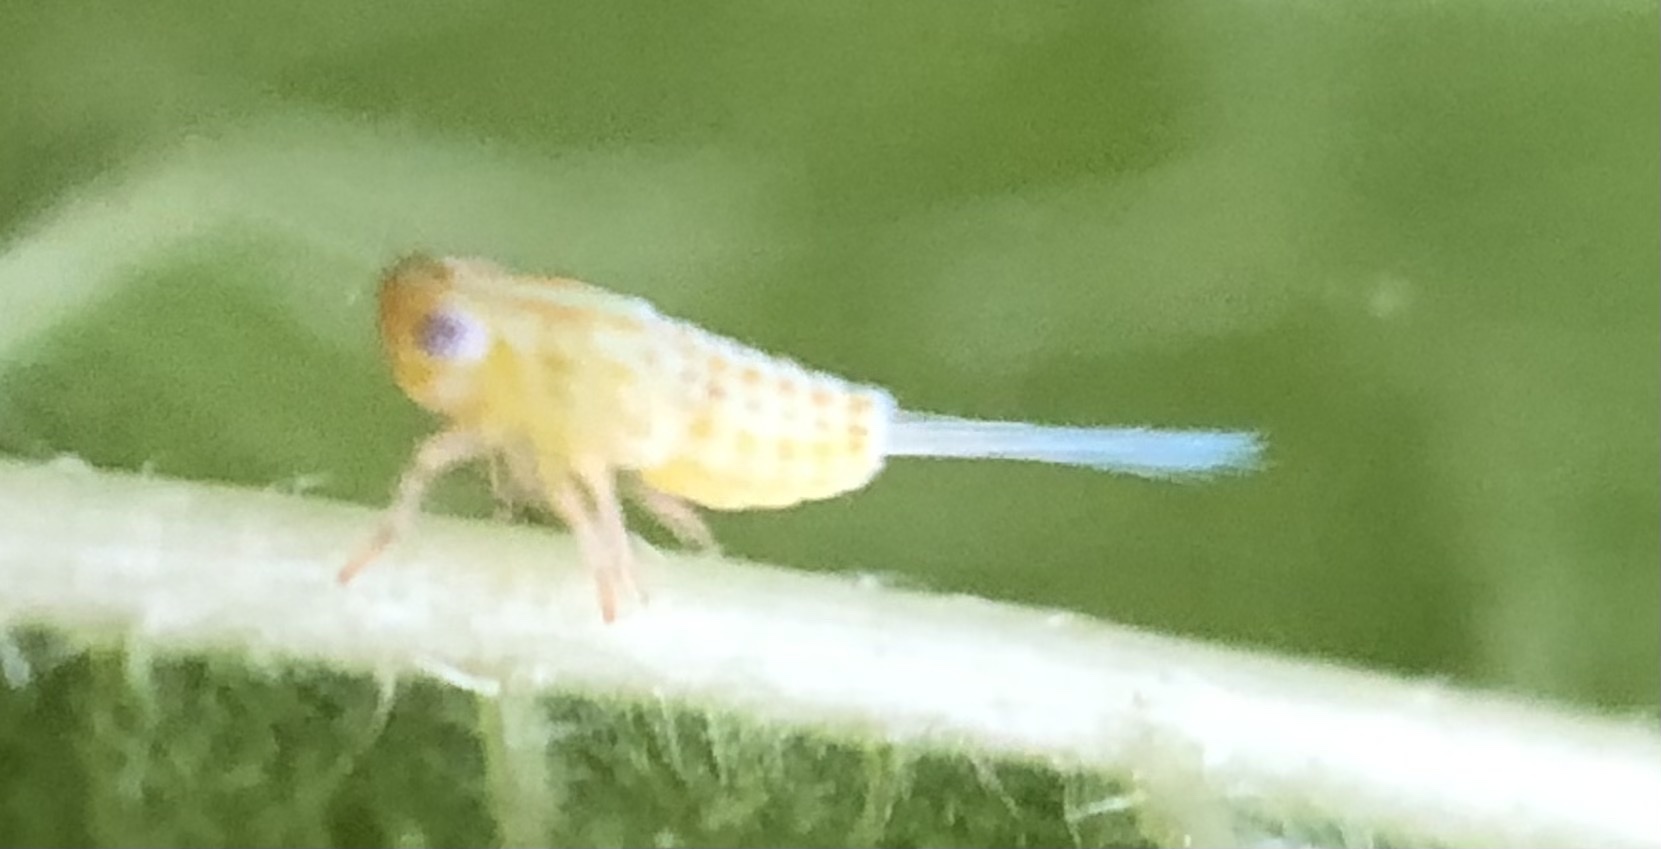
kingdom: Animalia
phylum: Arthropoda
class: Insecta
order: Hemiptera
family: Issidae
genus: Aplos
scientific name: Aplos simplex
